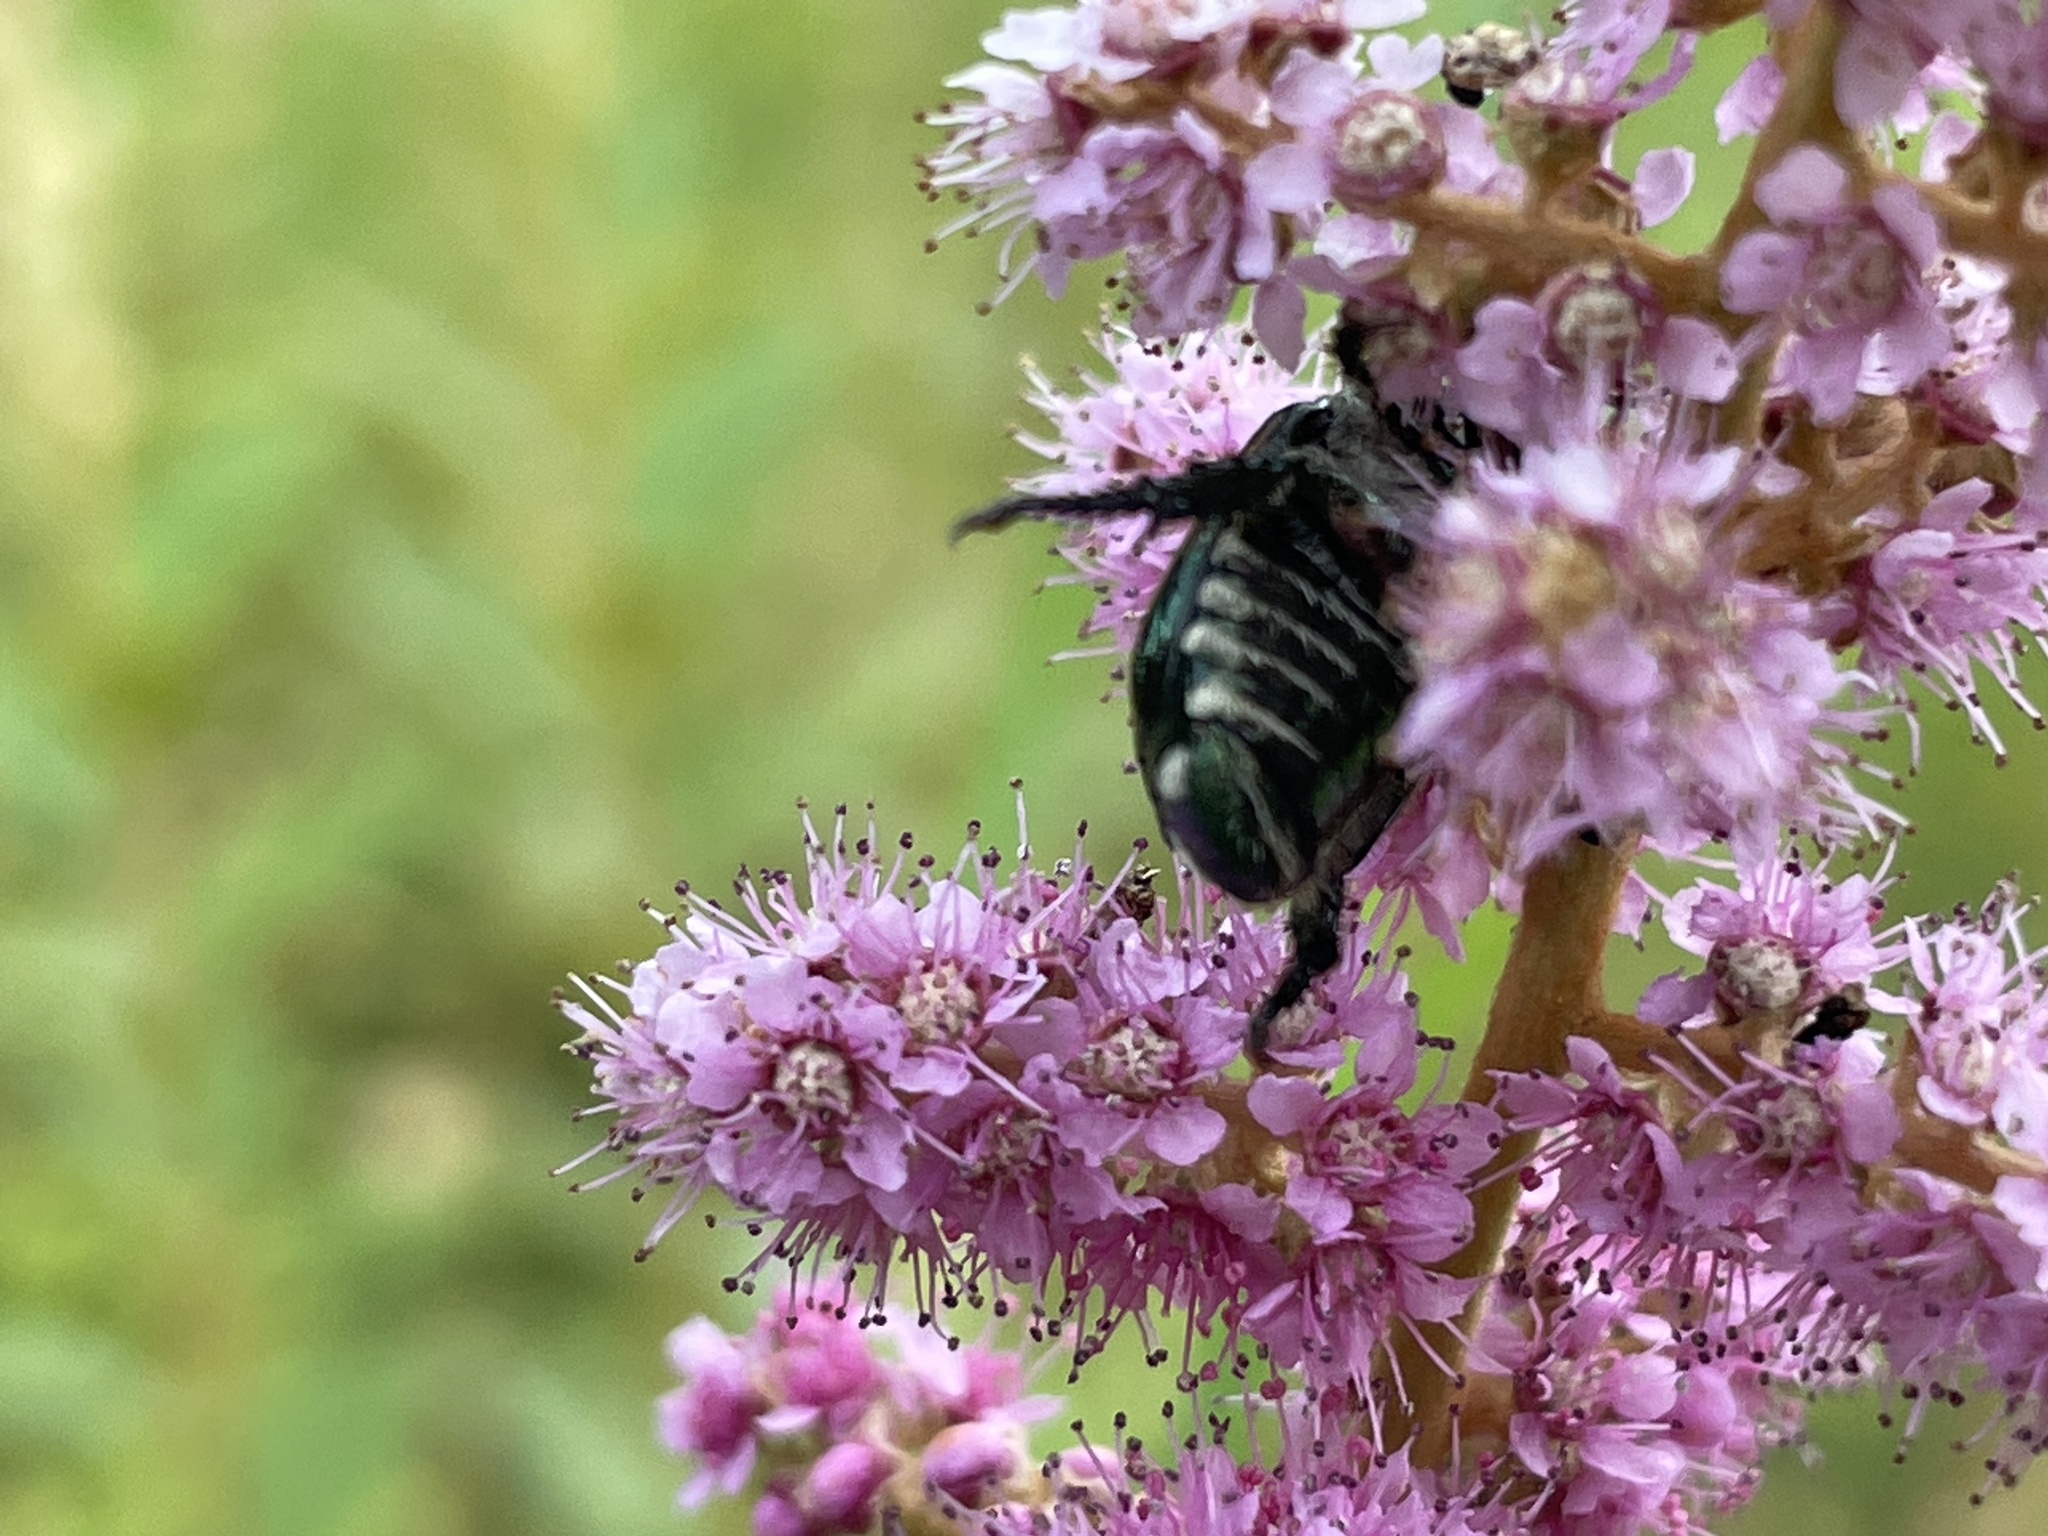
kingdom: Animalia
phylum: Arthropoda
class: Insecta
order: Coleoptera
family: Scarabaeidae
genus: Popillia
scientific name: Popillia japonica
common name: Japanese beetle
